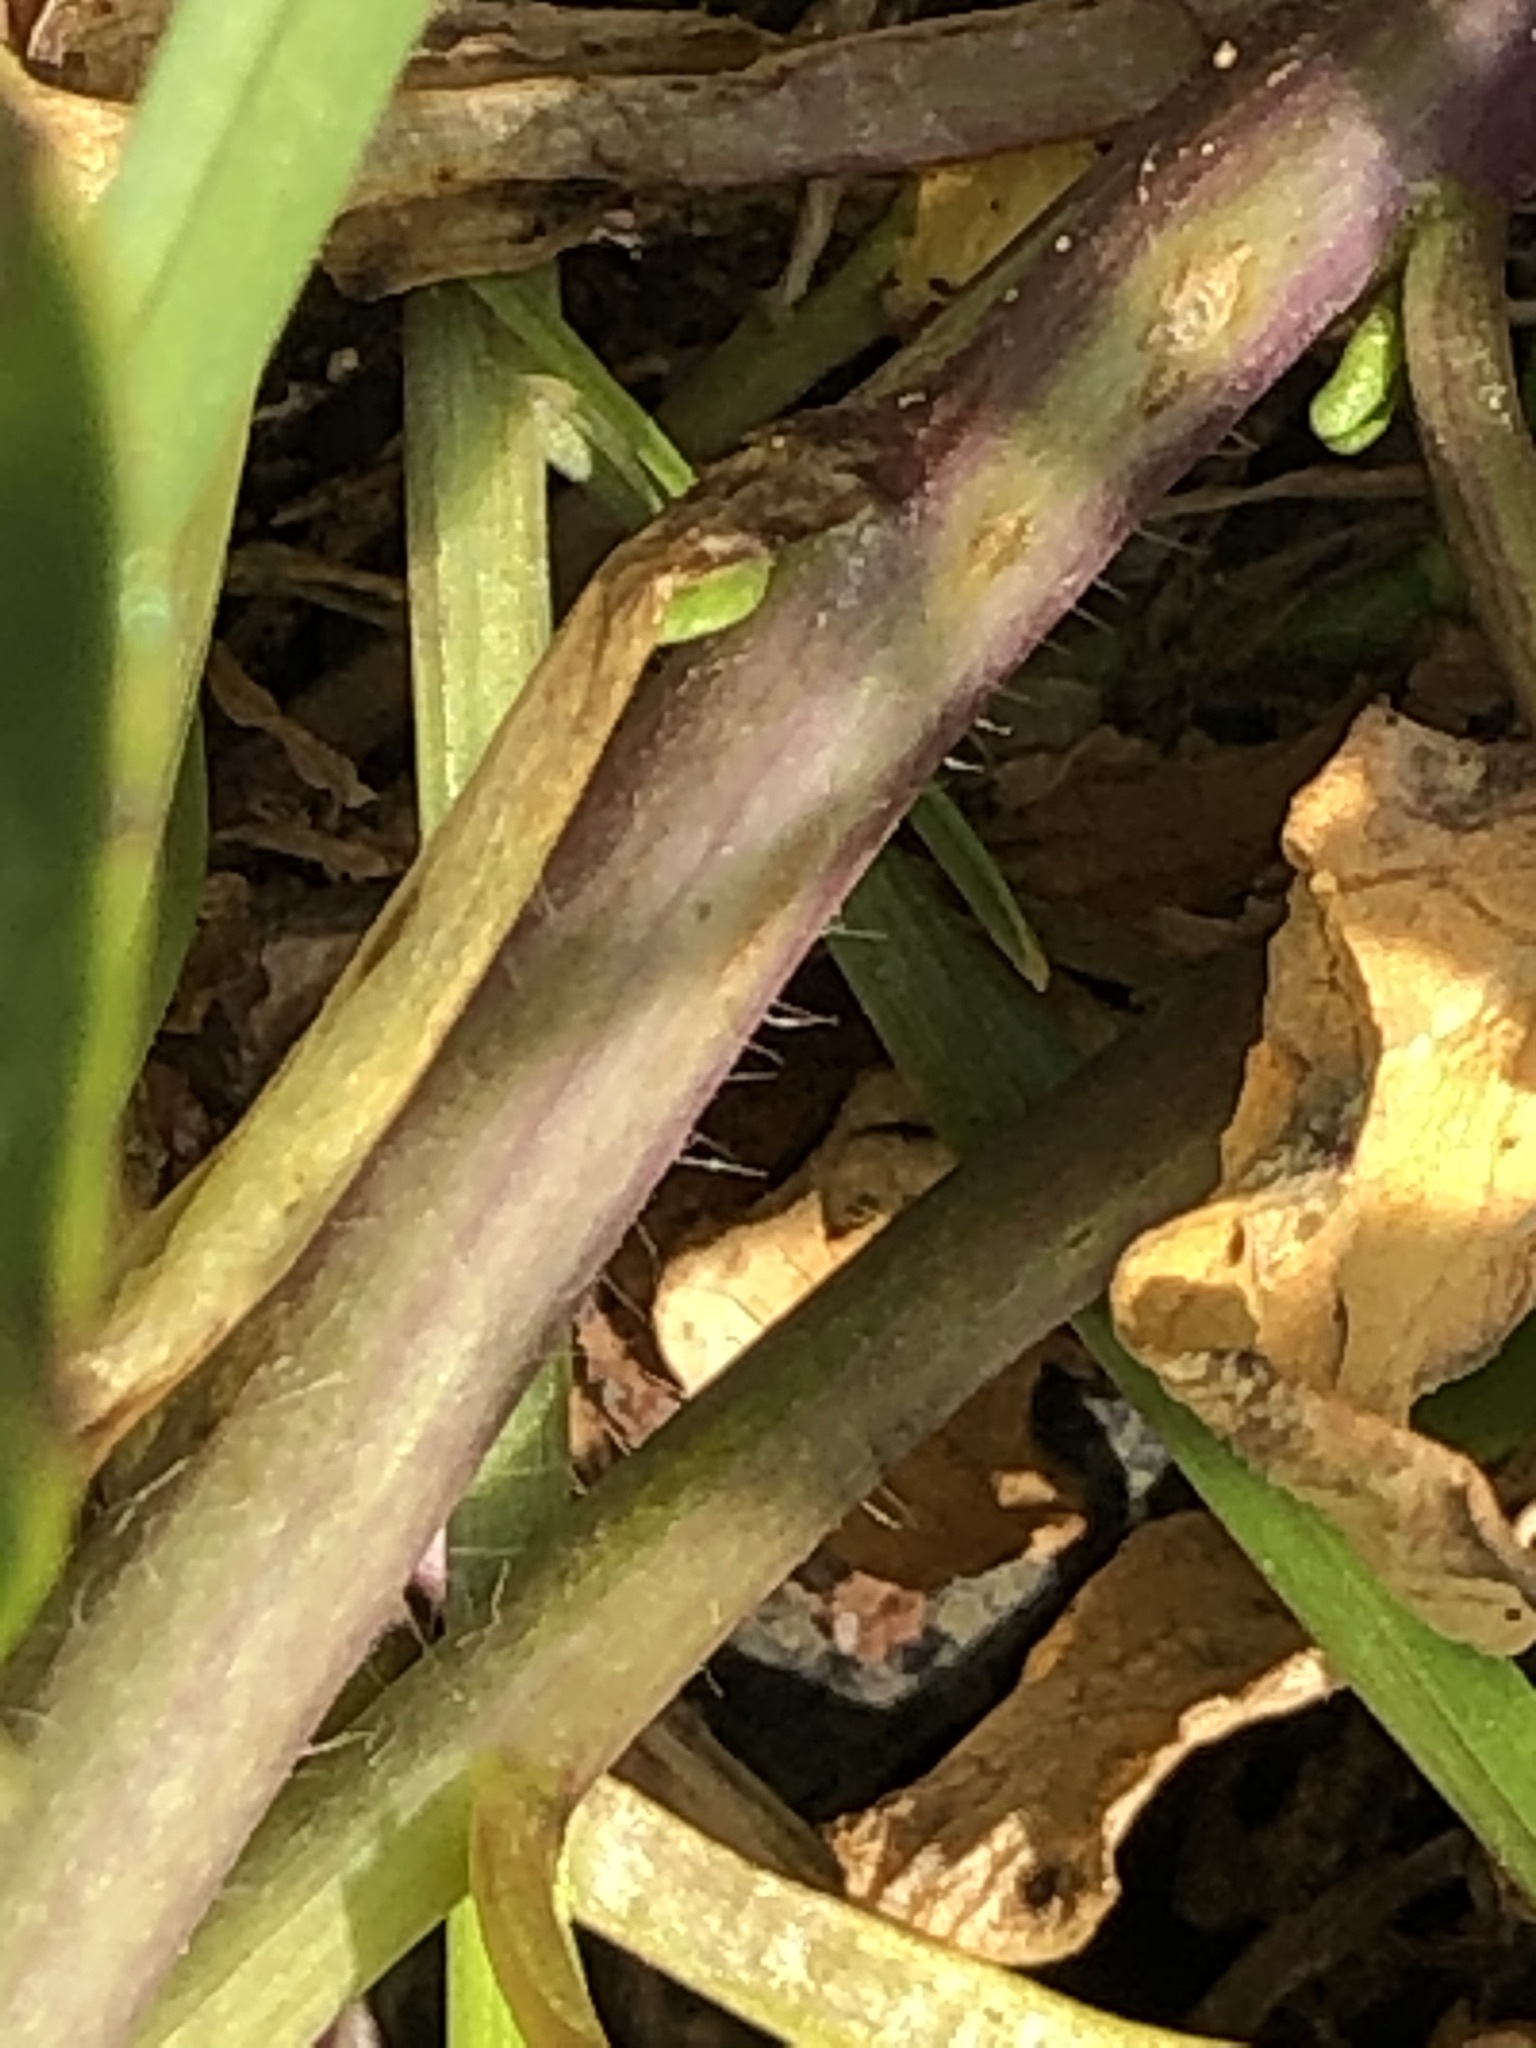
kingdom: Plantae
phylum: Tracheophyta
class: Magnoliopsida
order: Brassicales
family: Brassicaceae
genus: Mummenhoffia
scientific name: Mummenhoffia alliacea
